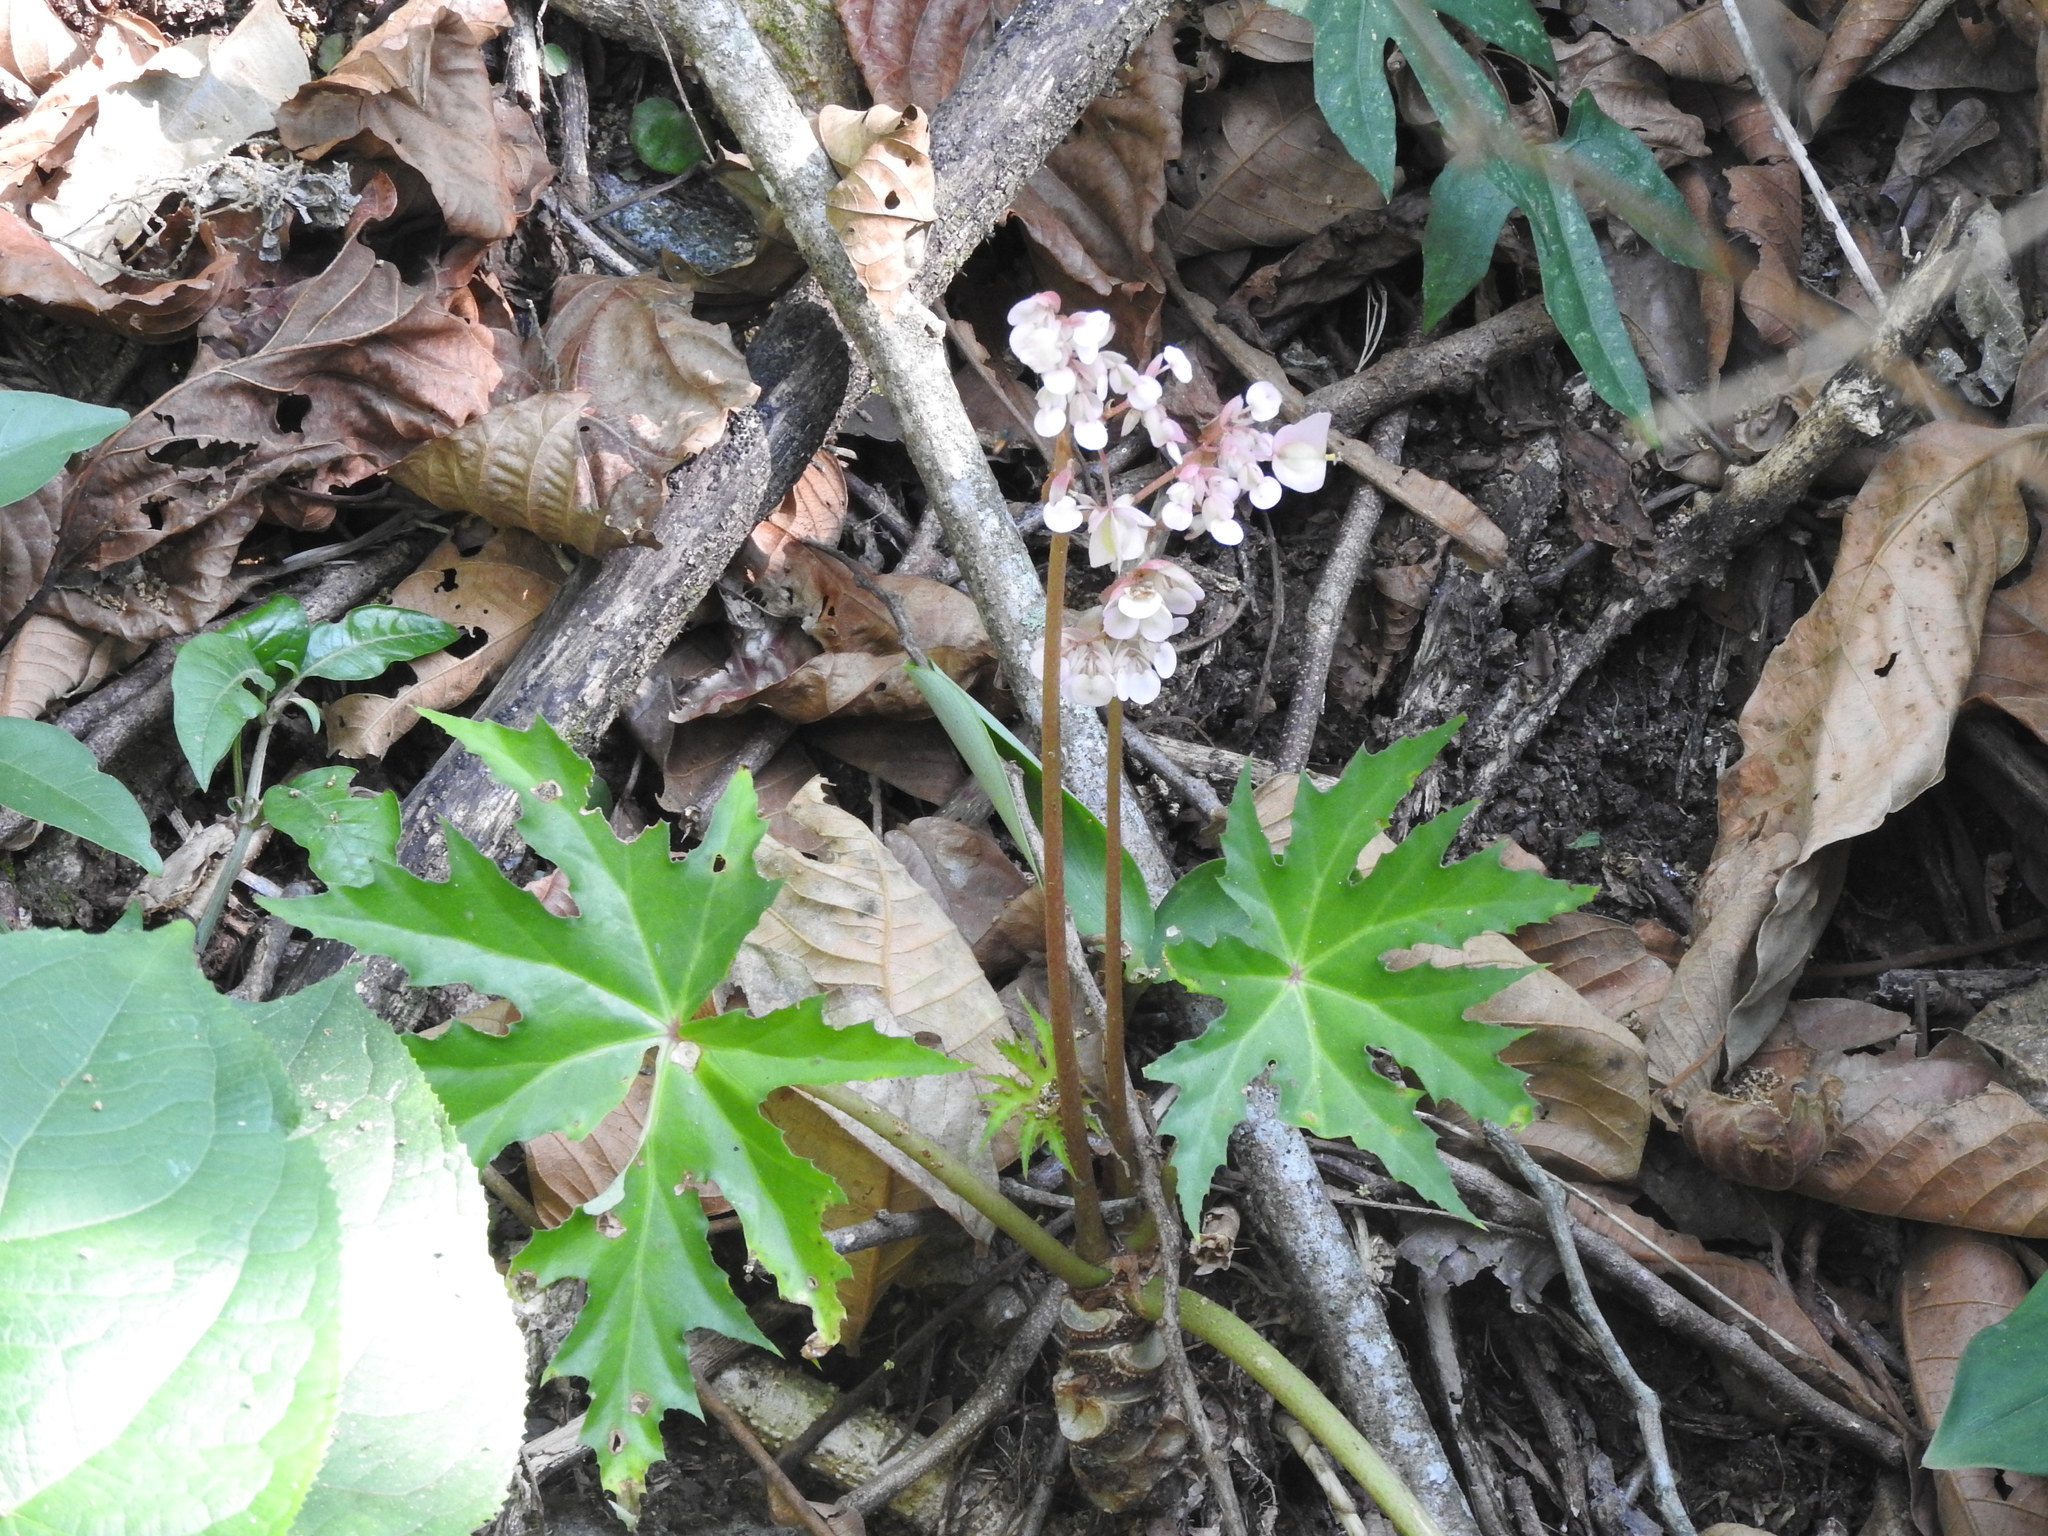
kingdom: Plantae
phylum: Tracheophyta
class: Magnoliopsida
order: Cucurbitales
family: Begoniaceae
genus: Begonia
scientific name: Begonia crassicaulis
